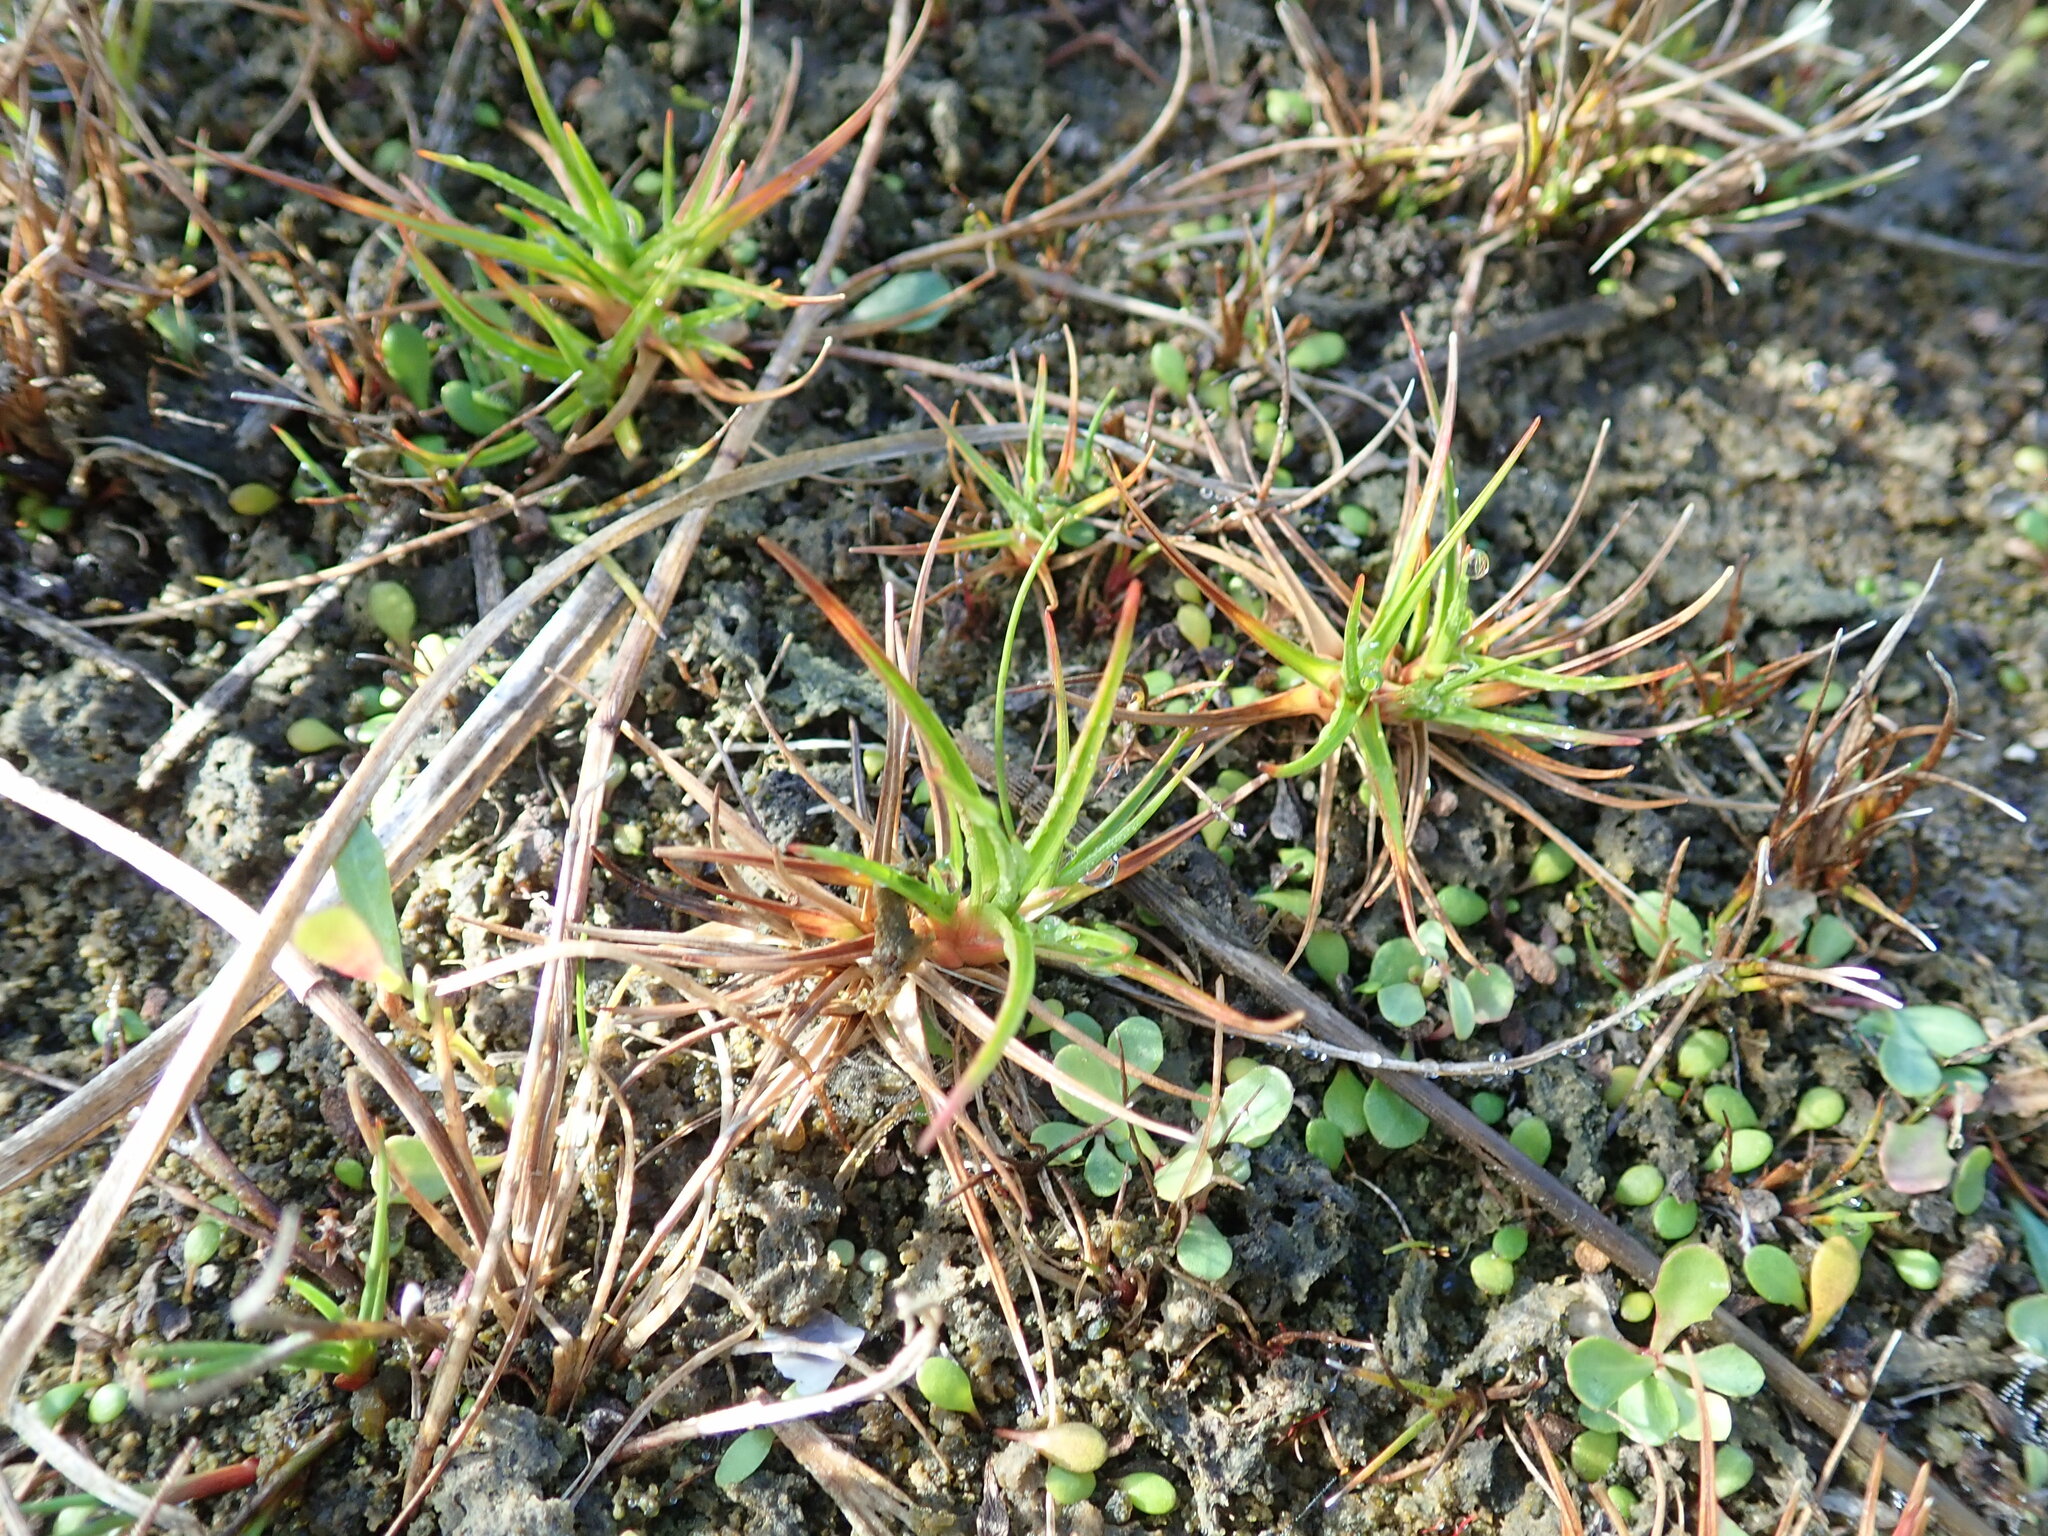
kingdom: Plantae
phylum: Tracheophyta
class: Liliopsida
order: Poales
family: Juncaceae
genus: Juncus
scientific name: Juncus caespiticius
